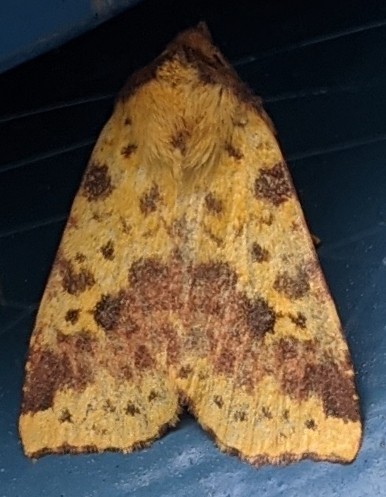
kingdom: Animalia
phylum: Arthropoda
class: Insecta
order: Lepidoptera
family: Noctuidae
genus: Xanthia
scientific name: Xanthia tatago
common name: Pink-banded sallow
